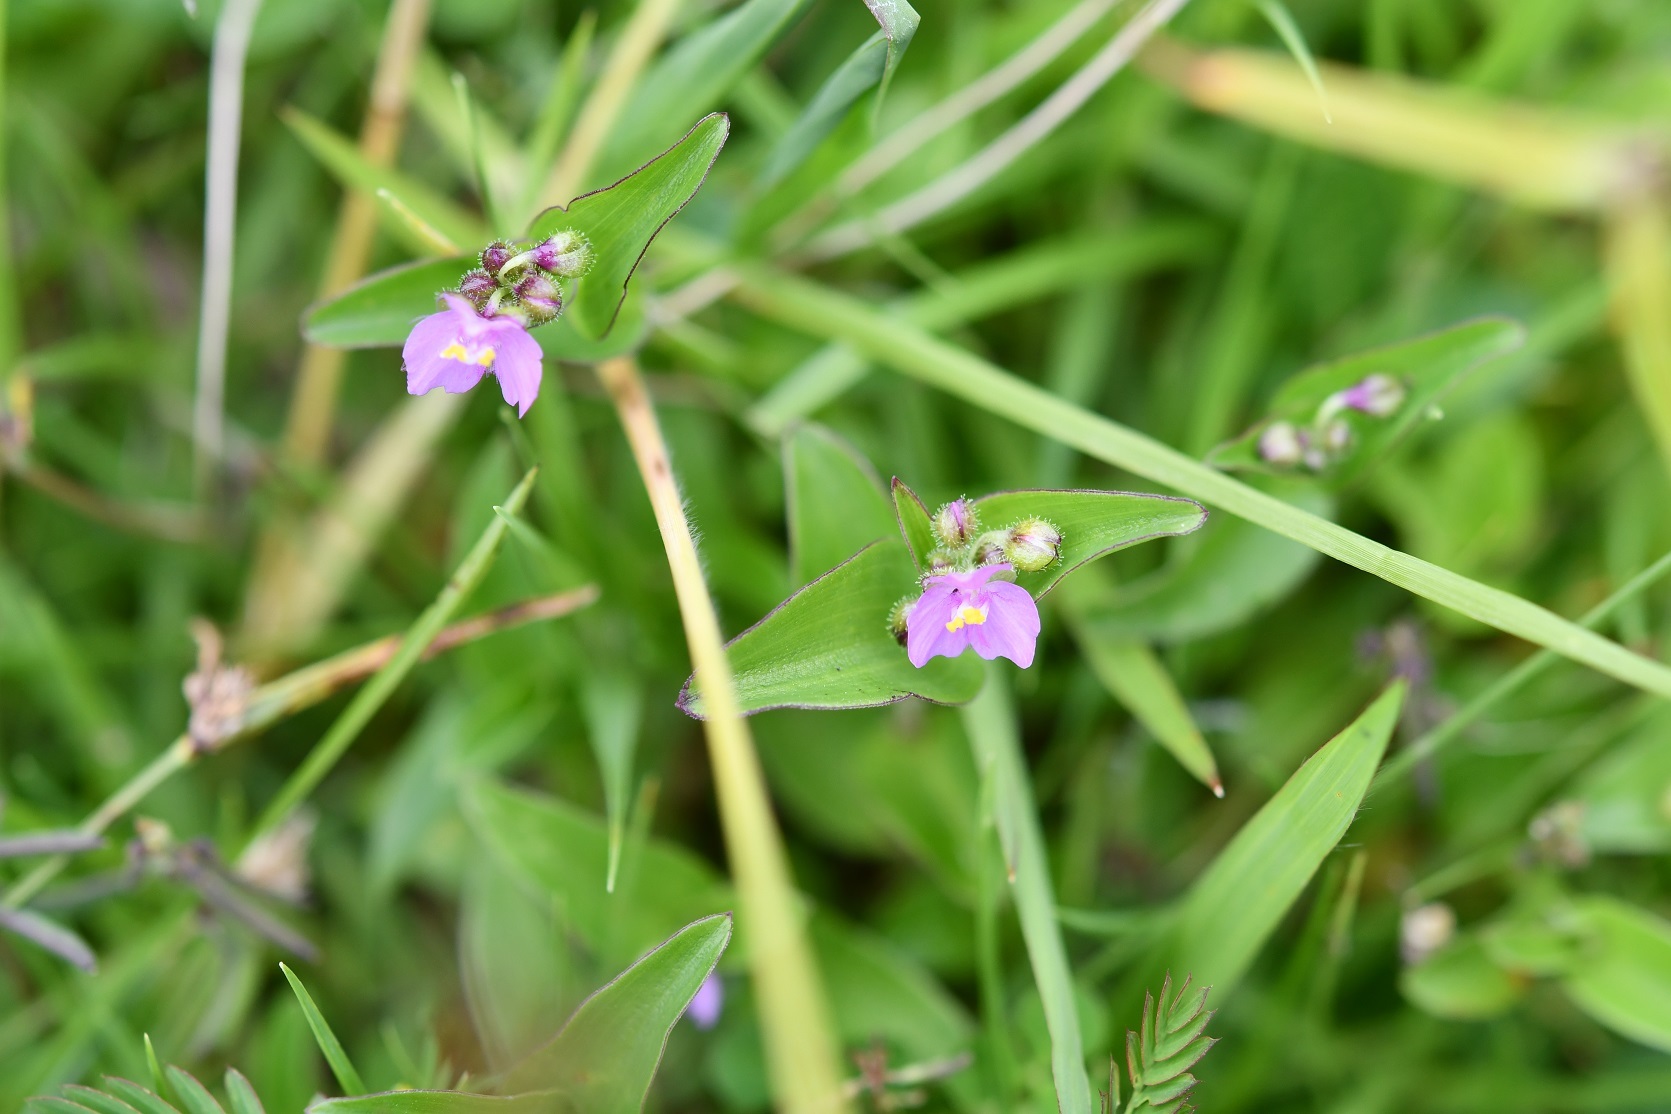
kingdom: Plantae
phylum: Tracheophyta
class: Liliopsida
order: Commelinales
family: Commelinaceae
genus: Callisia
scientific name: Callisia purpurascens
